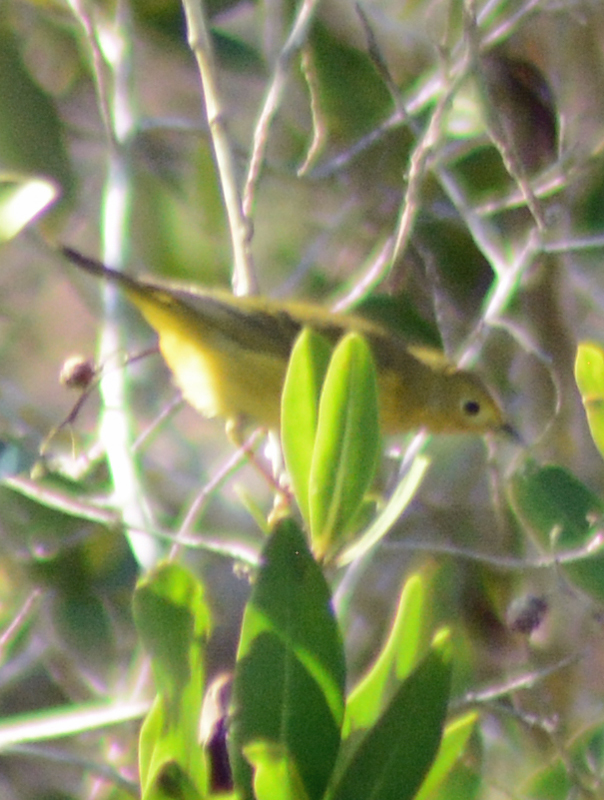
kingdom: Animalia
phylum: Chordata
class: Aves
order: Passeriformes
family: Parulidae
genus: Leiothlypis
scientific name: Leiothlypis celata
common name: Orange-crowned warbler
